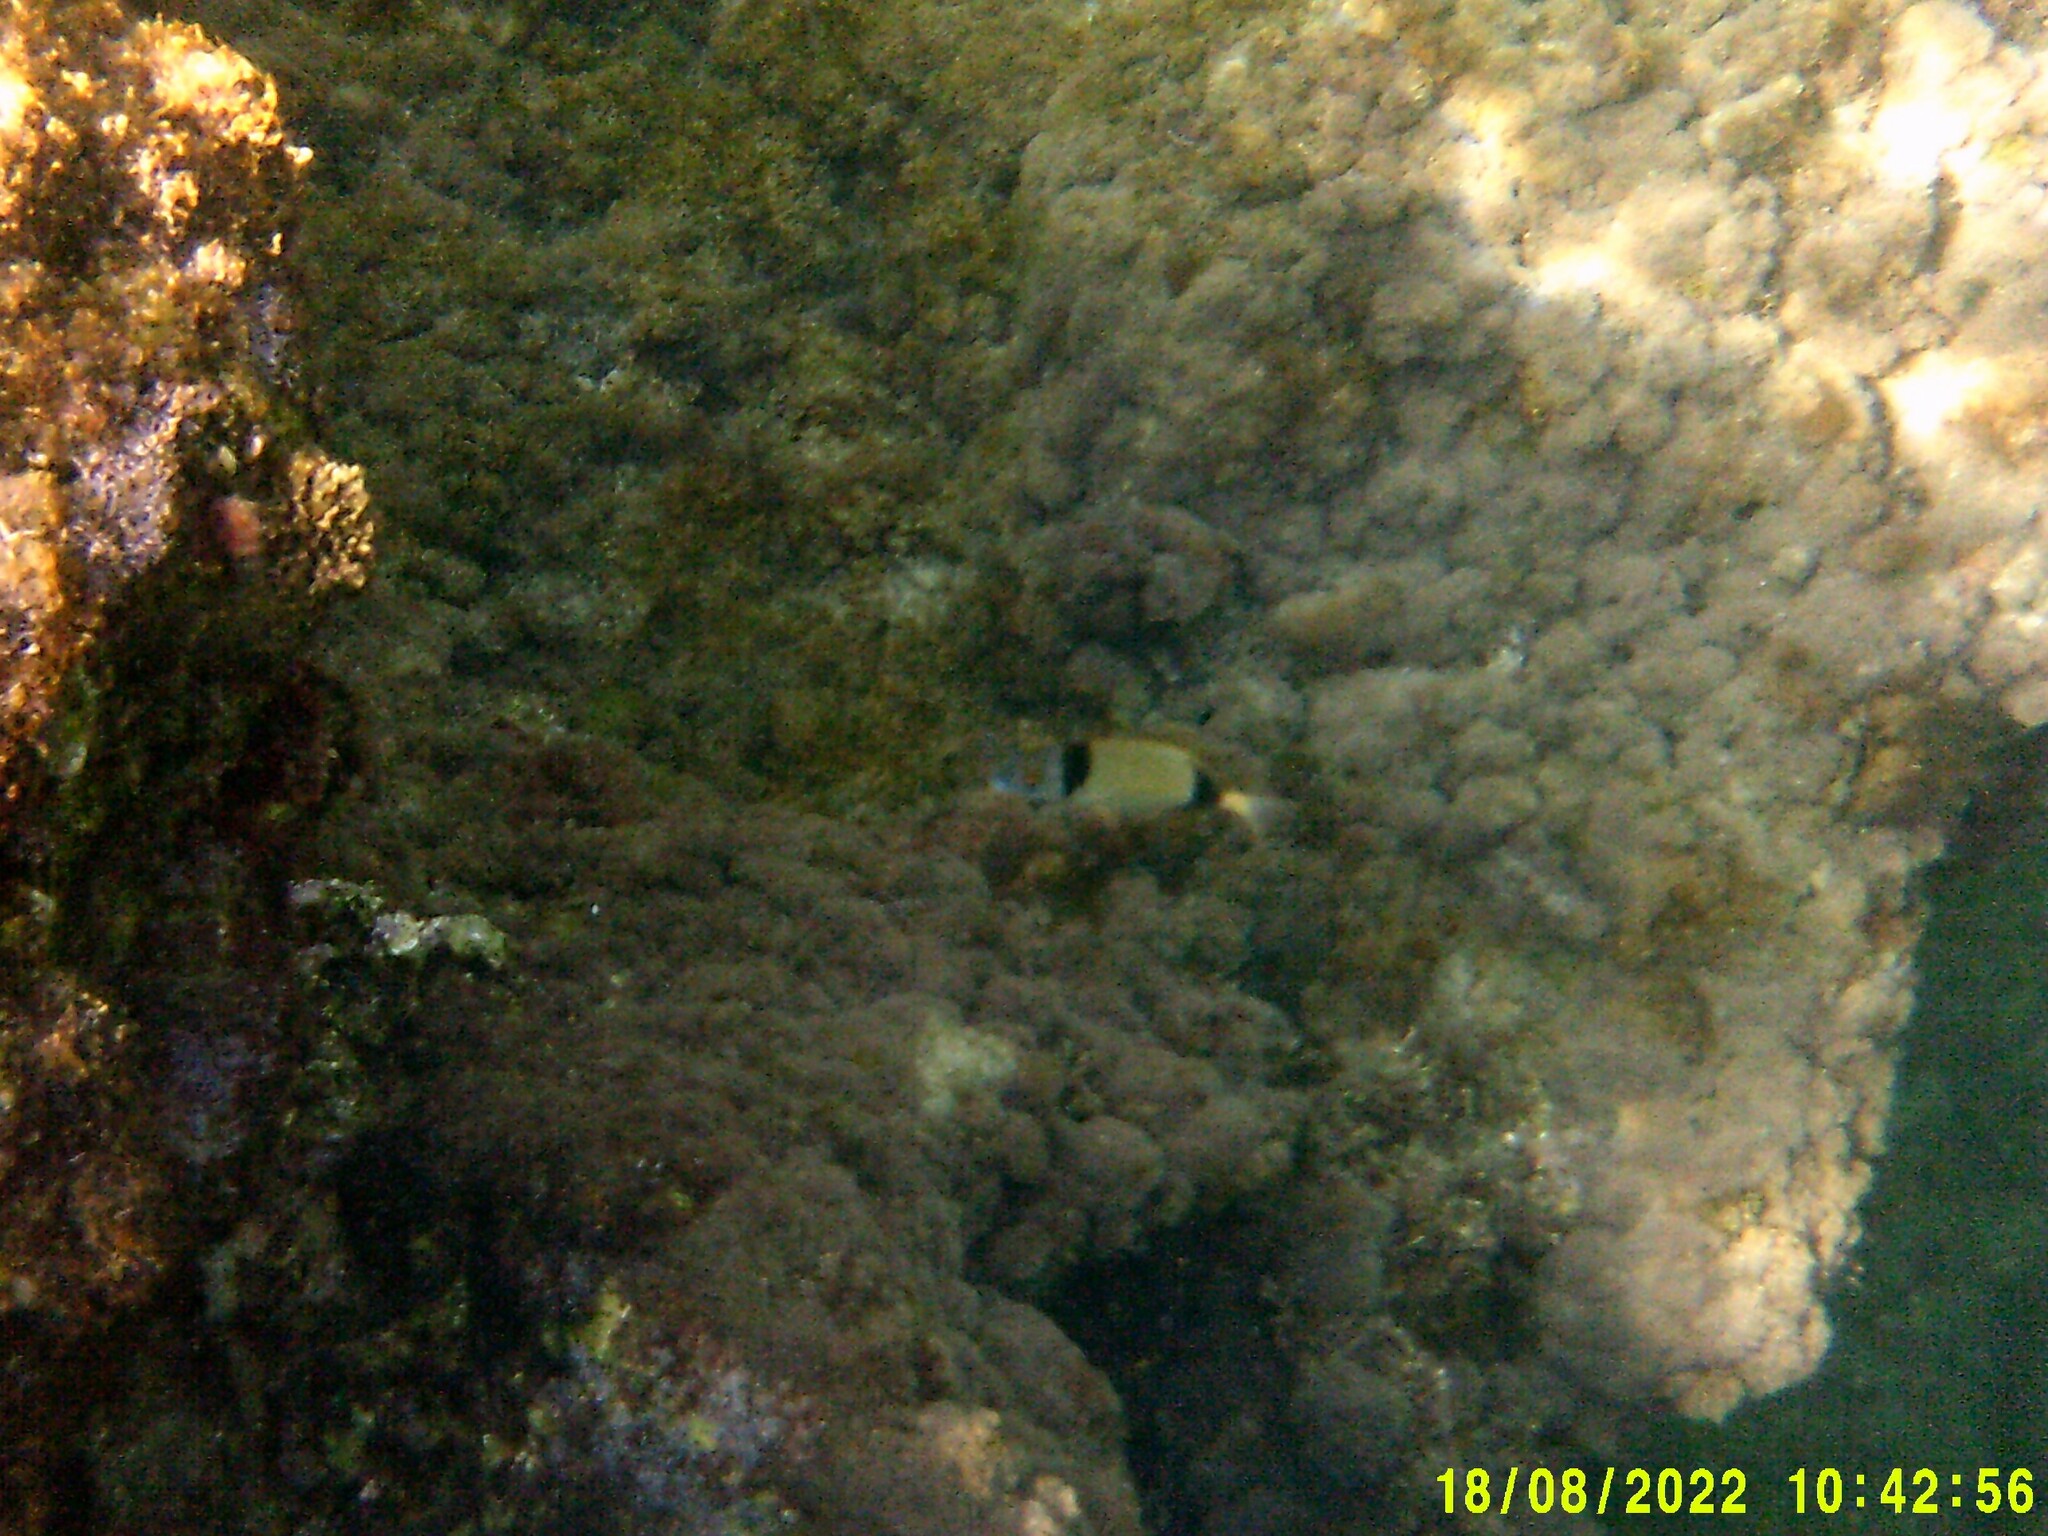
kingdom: Animalia
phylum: Chordata
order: Perciformes
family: Sparidae
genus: Diplodus
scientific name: Diplodus vulgaris
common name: Common two-banded seabream
